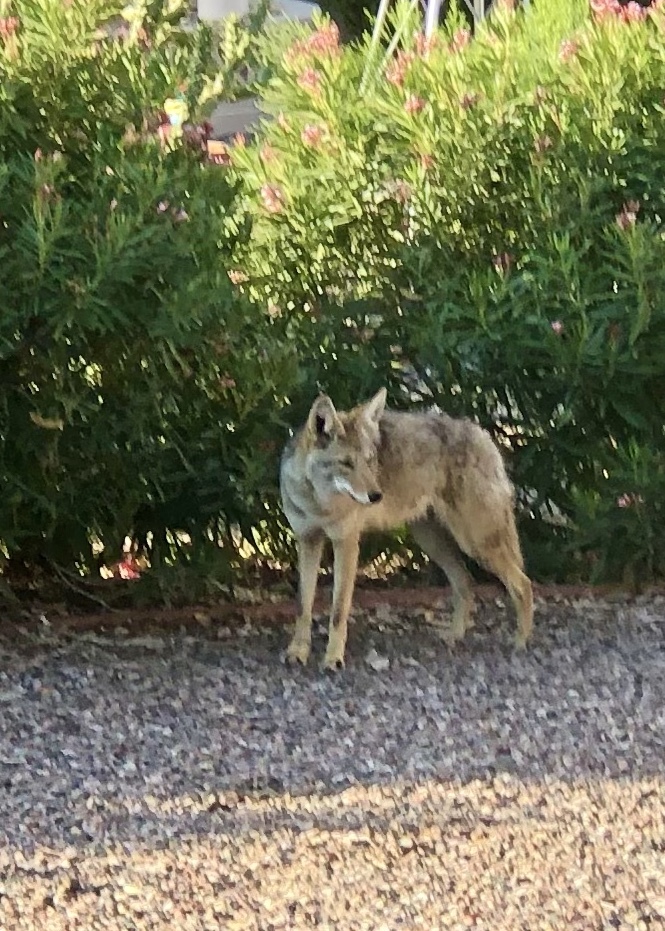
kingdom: Animalia
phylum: Chordata
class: Mammalia
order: Carnivora
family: Canidae
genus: Canis
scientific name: Canis latrans
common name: Coyote
